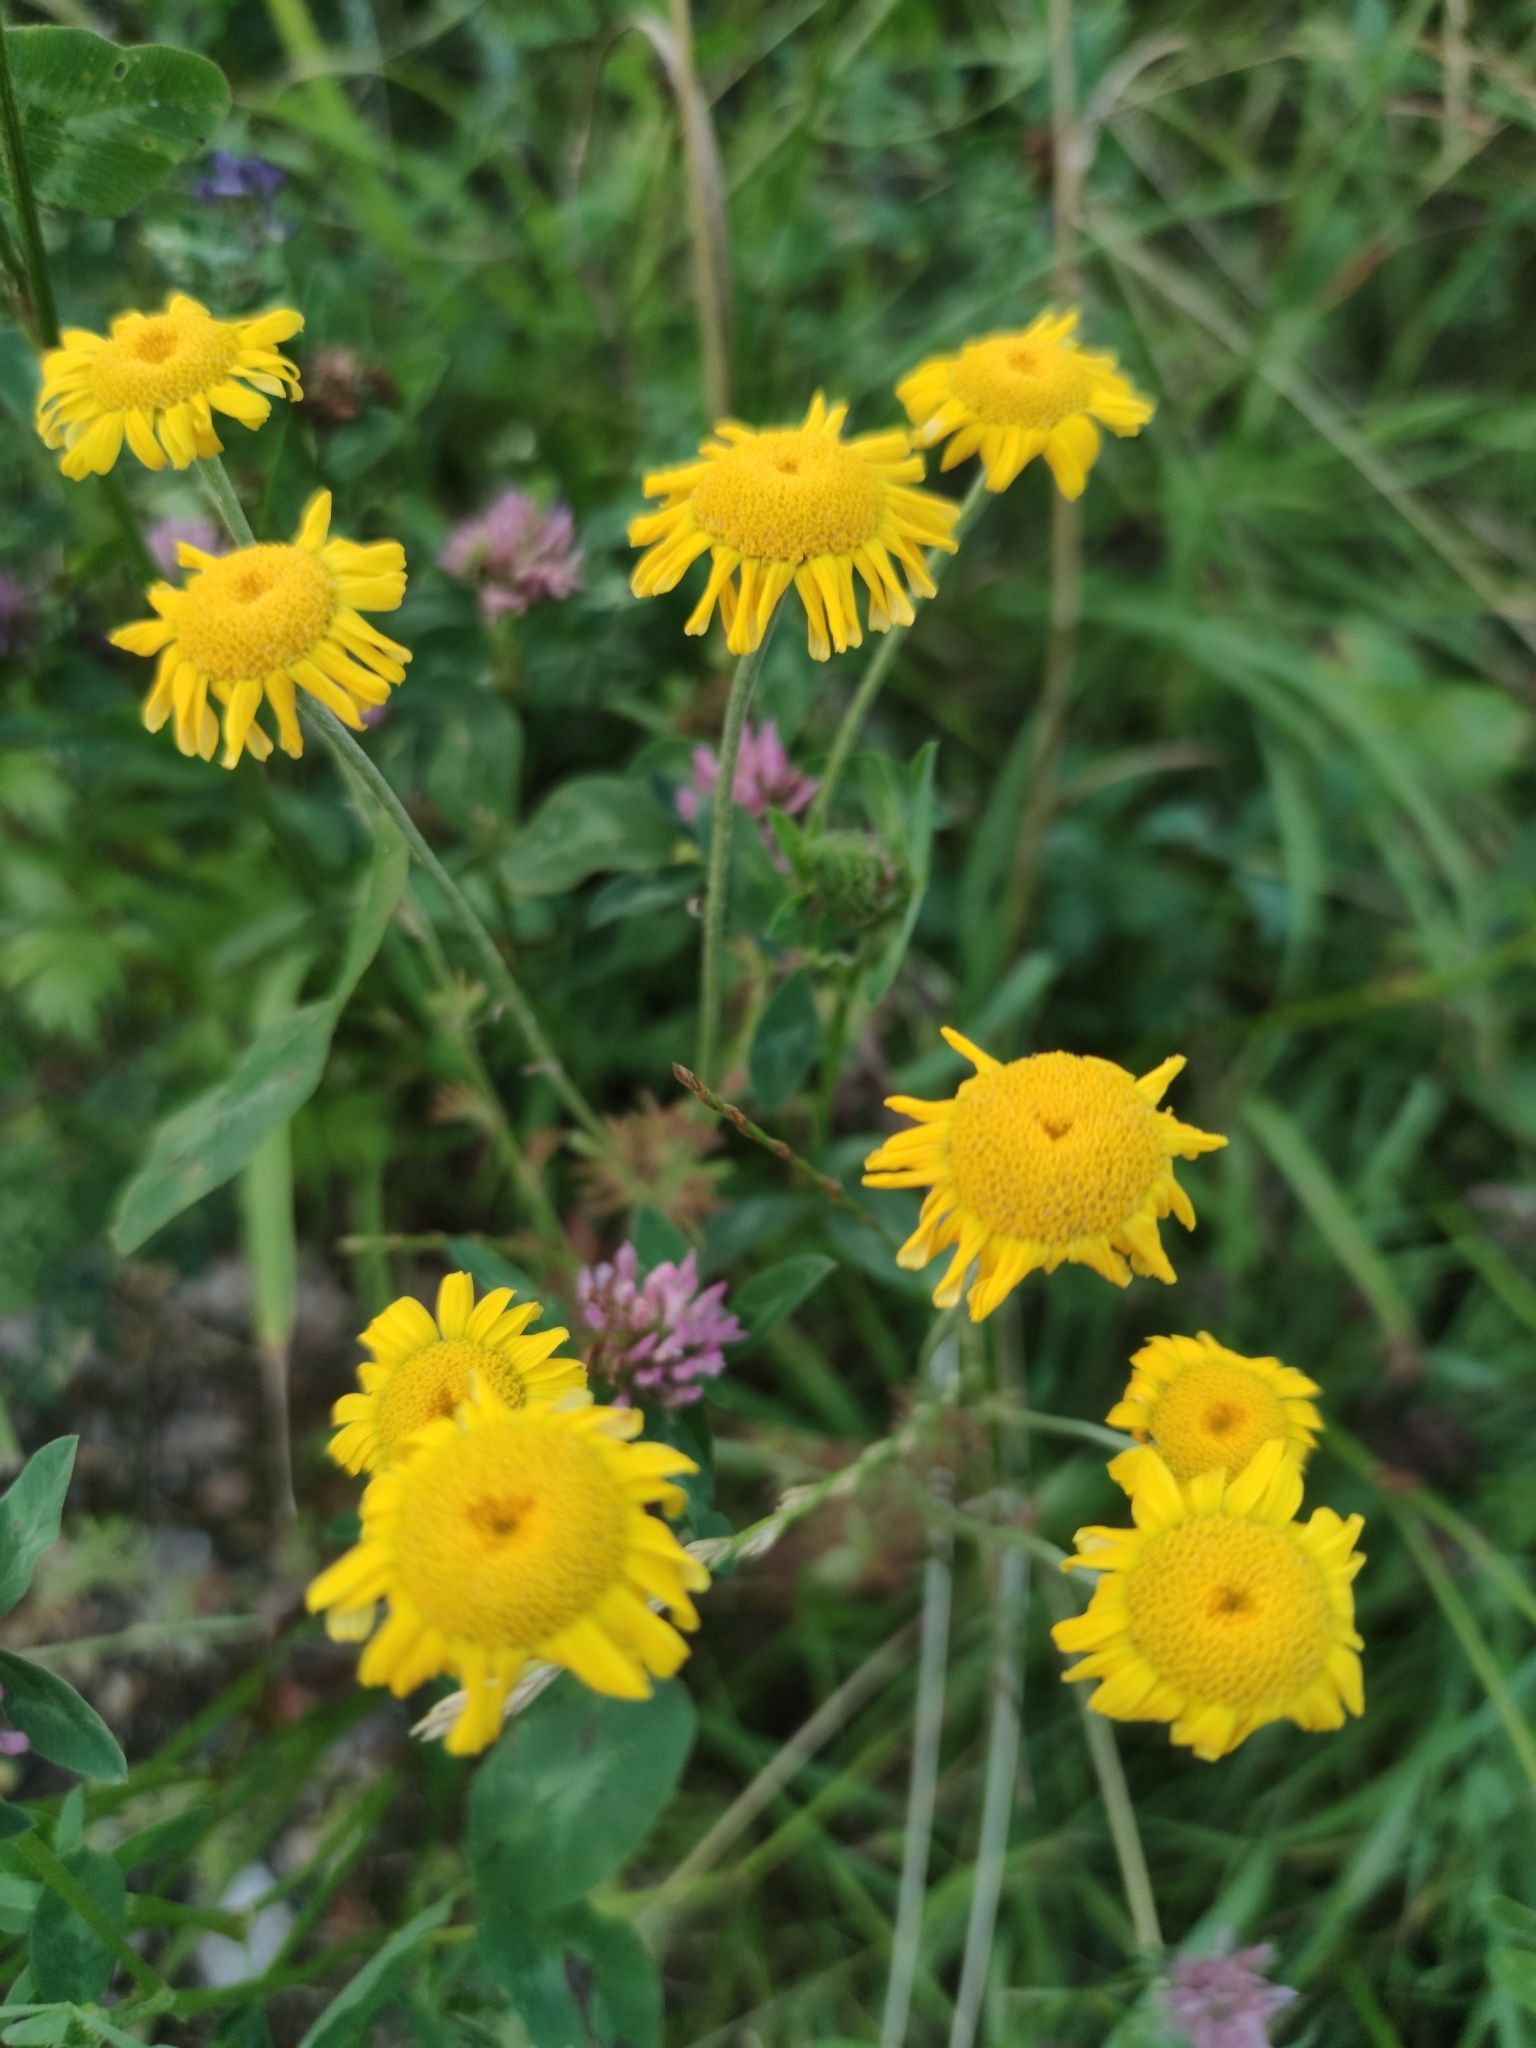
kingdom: Plantae
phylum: Tracheophyta
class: Magnoliopsida
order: Asterales
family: Asteraceae
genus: Cota
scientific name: Cota tinctoria
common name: Golden chamomile
